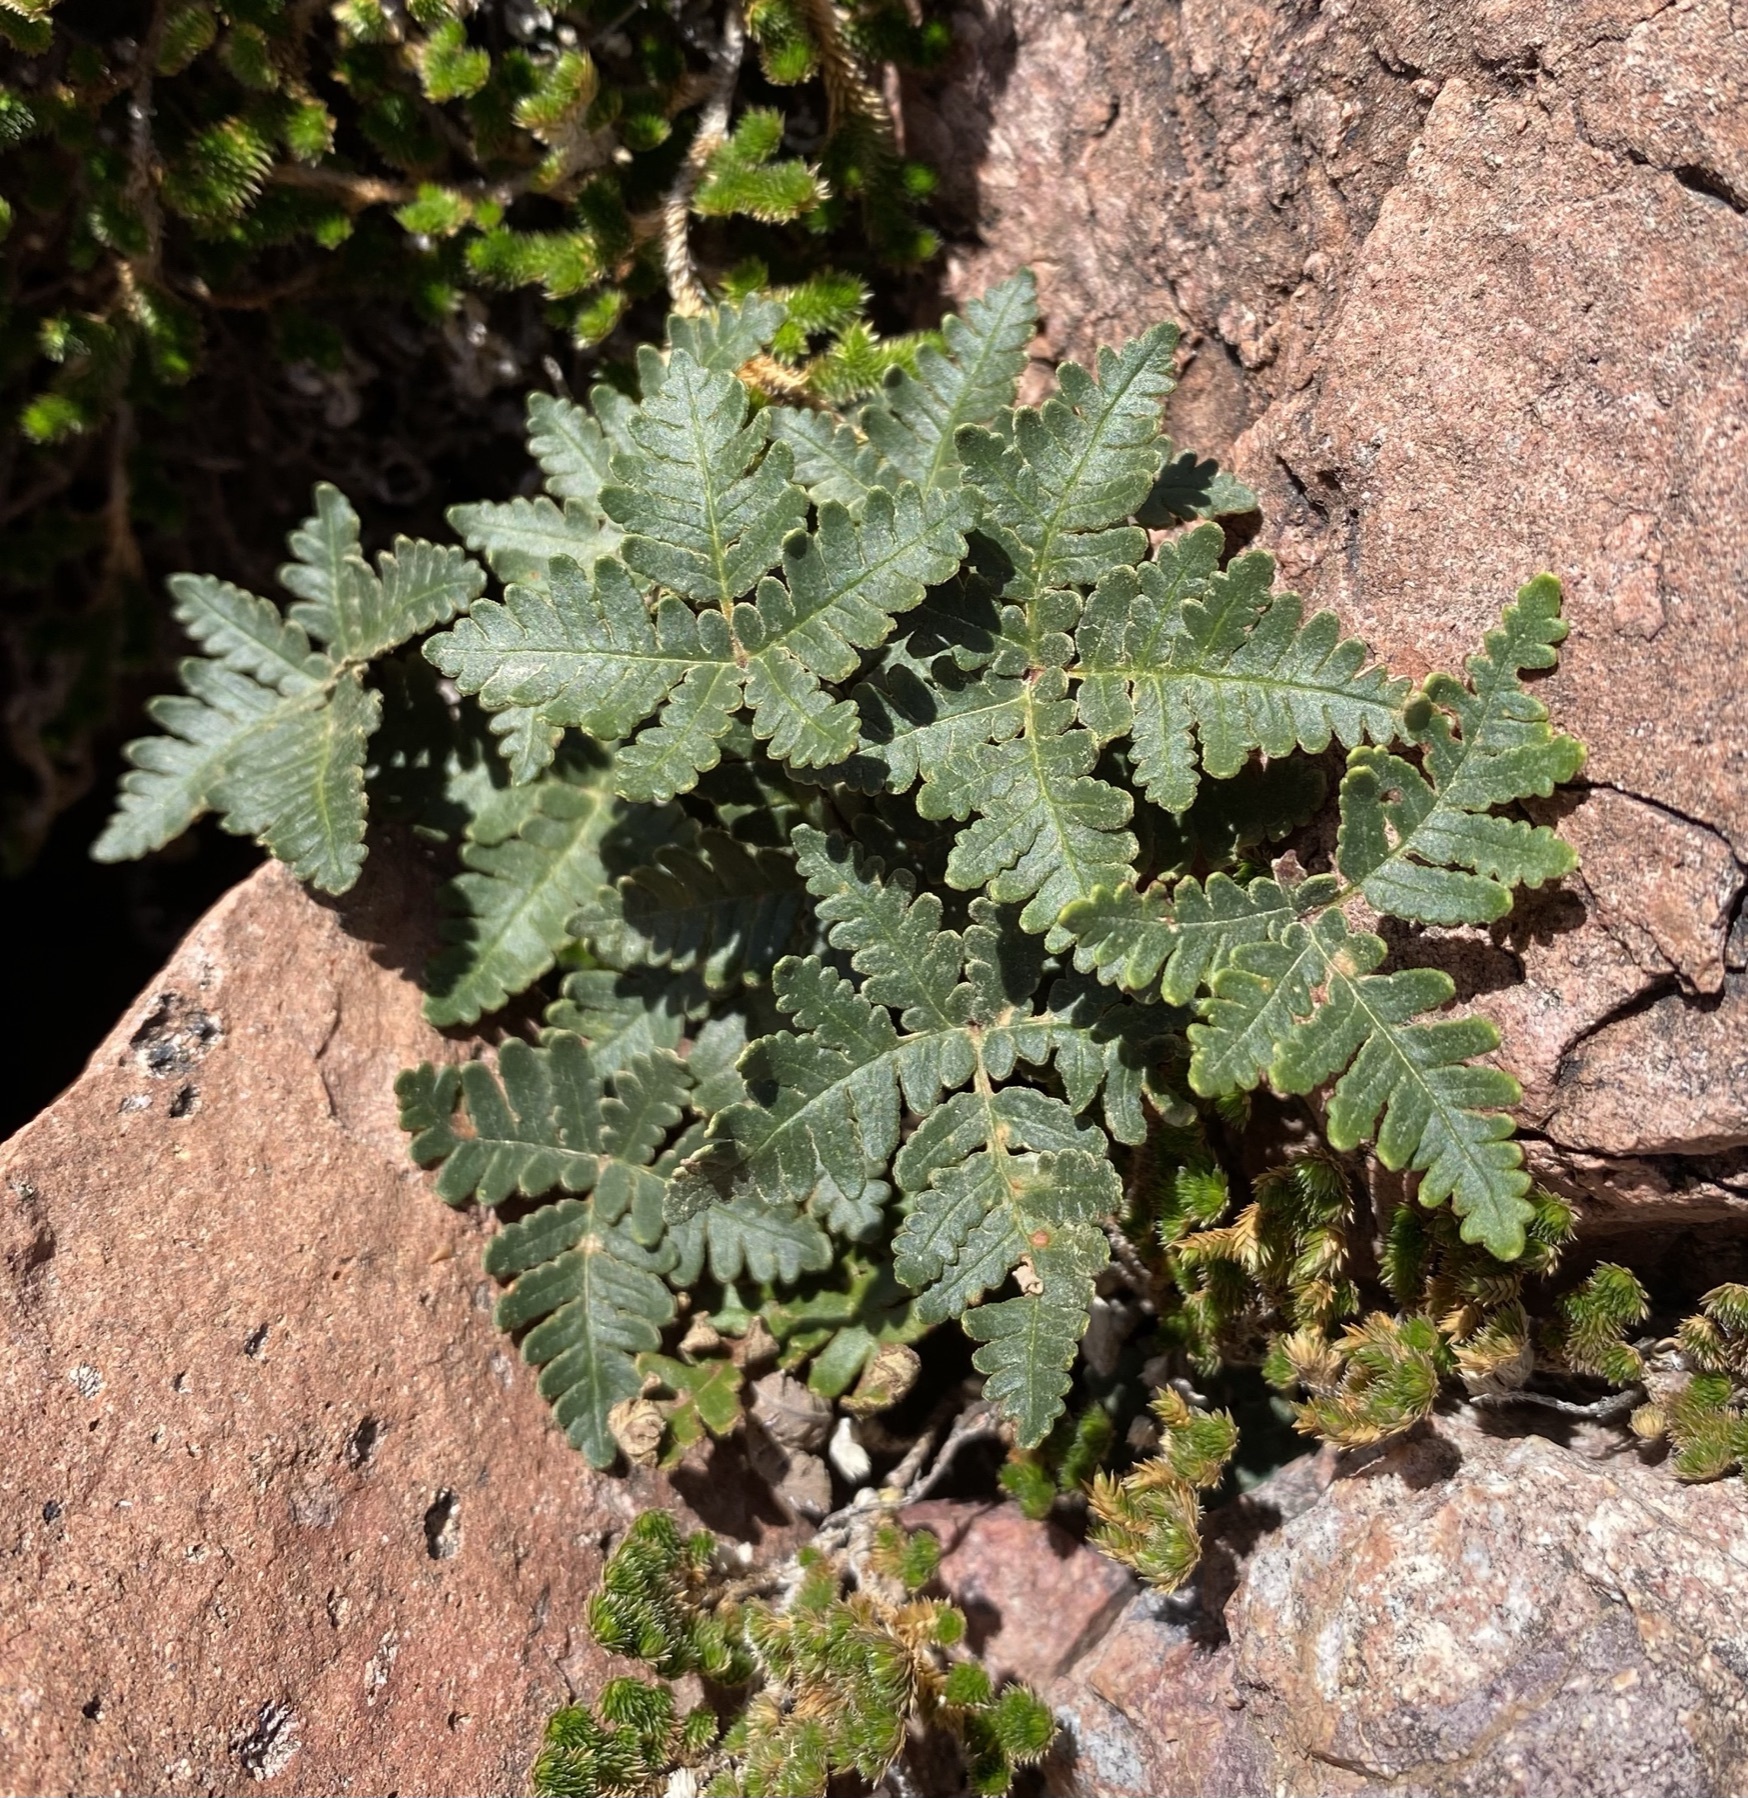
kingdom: Plantae
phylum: Tracheophyta
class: Polypodiopsida
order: Polypodiales
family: Pteridaceae
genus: Notholaena
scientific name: Notholaena standleyi
